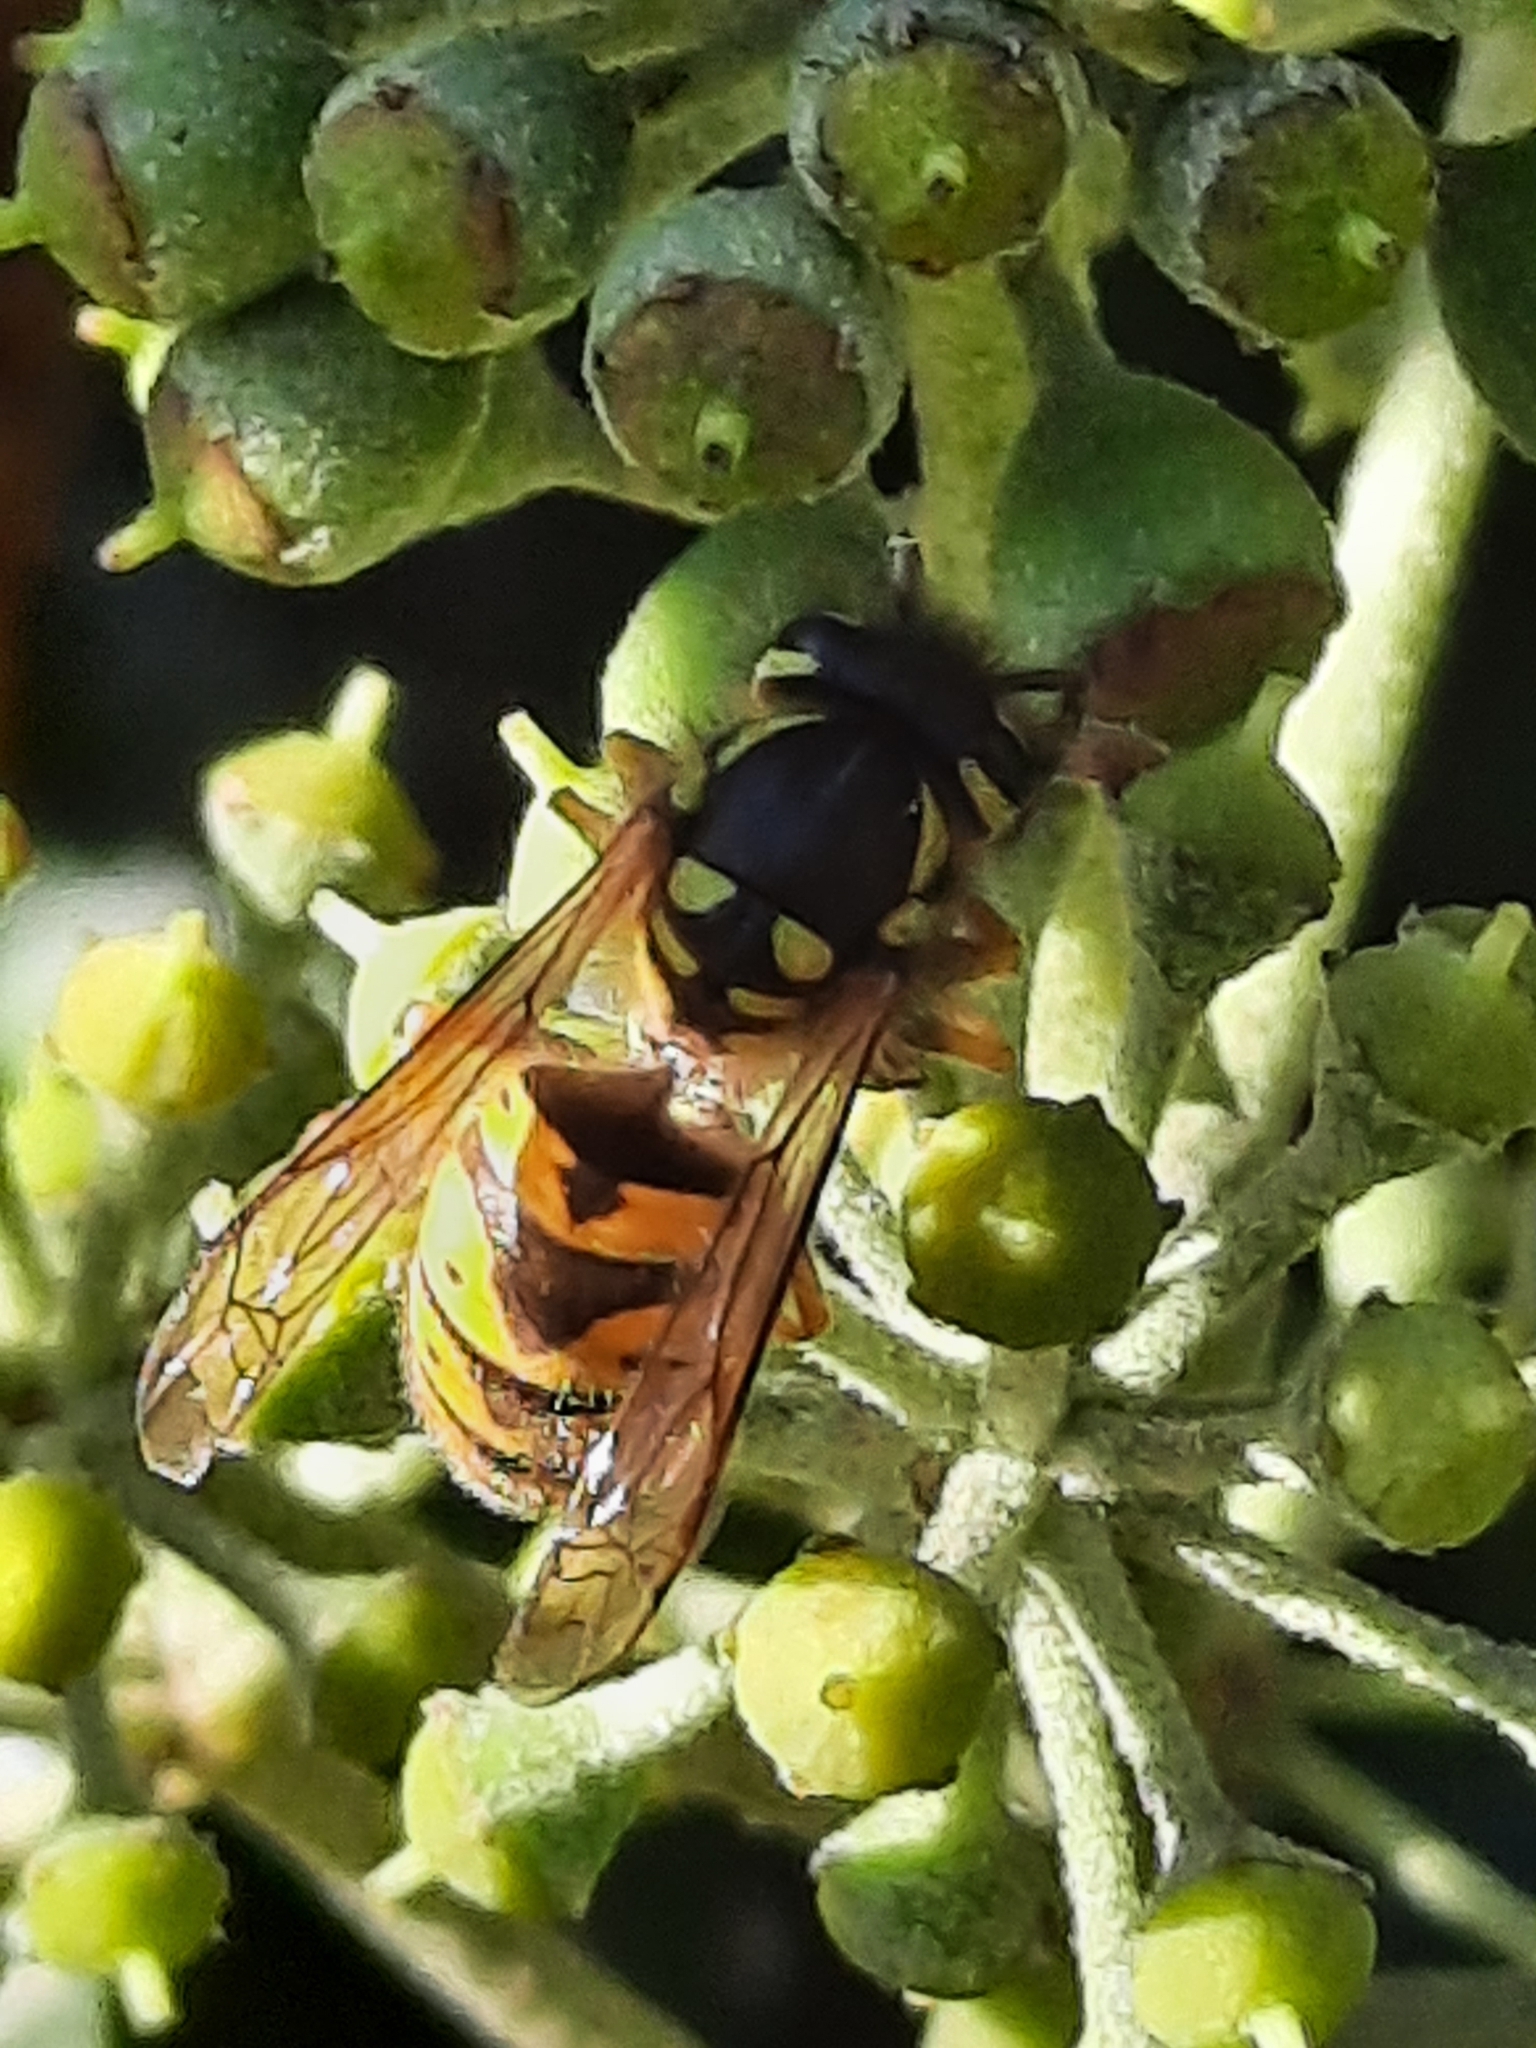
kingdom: Animalia
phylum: Arthropoda
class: Insecta
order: Hymenoptera
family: Vespidae
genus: Vespula
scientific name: Vespula germanica
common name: German wasp
